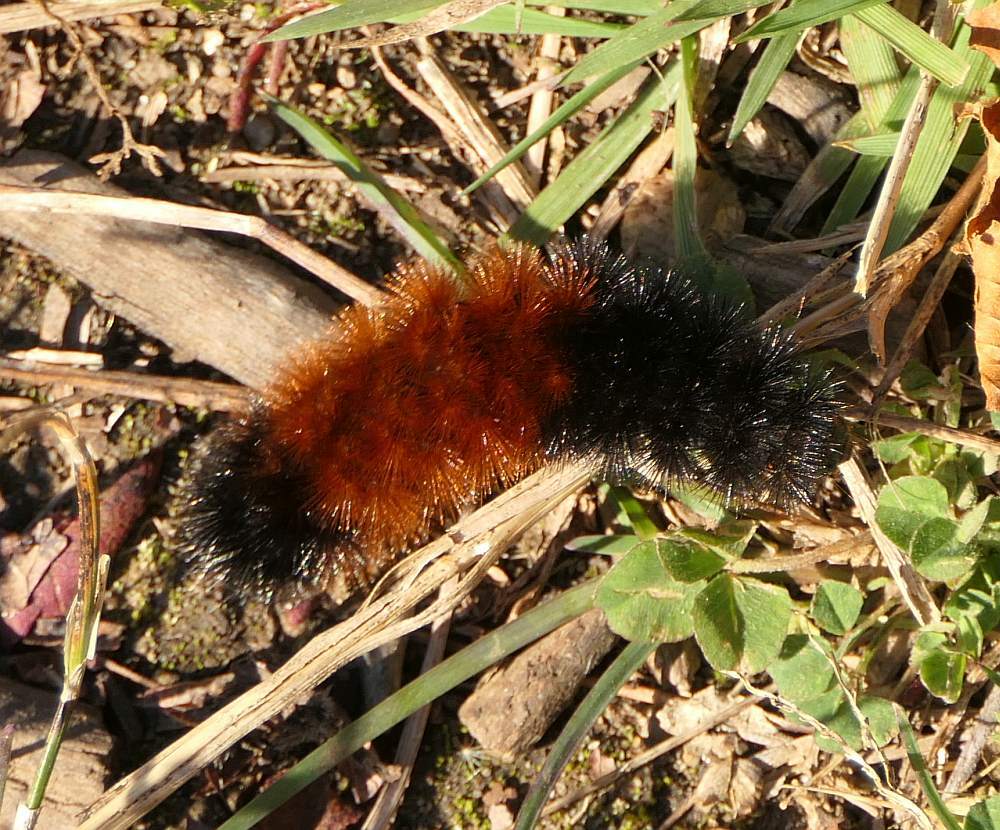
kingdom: Animalia
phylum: Arthropoda
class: Insecta
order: Lepidoptera
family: Erebidae
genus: Pyrrharctia
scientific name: Pyrrharctia isabella
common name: Isabella tiger moth
